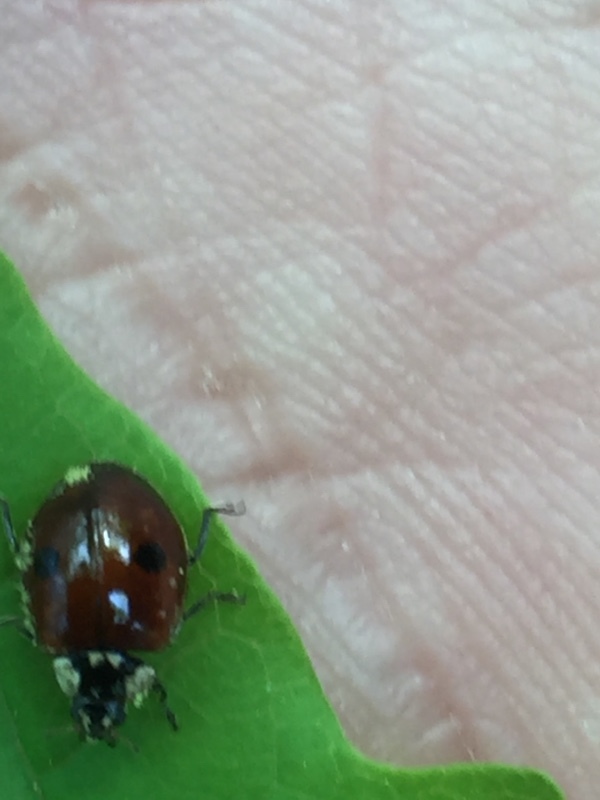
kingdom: Animalia
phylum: Arthropoda
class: Insecta
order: Coleoptera
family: Coccinellidae
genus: Adalia
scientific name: Adalia bipunctata
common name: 2-spot ladybird
